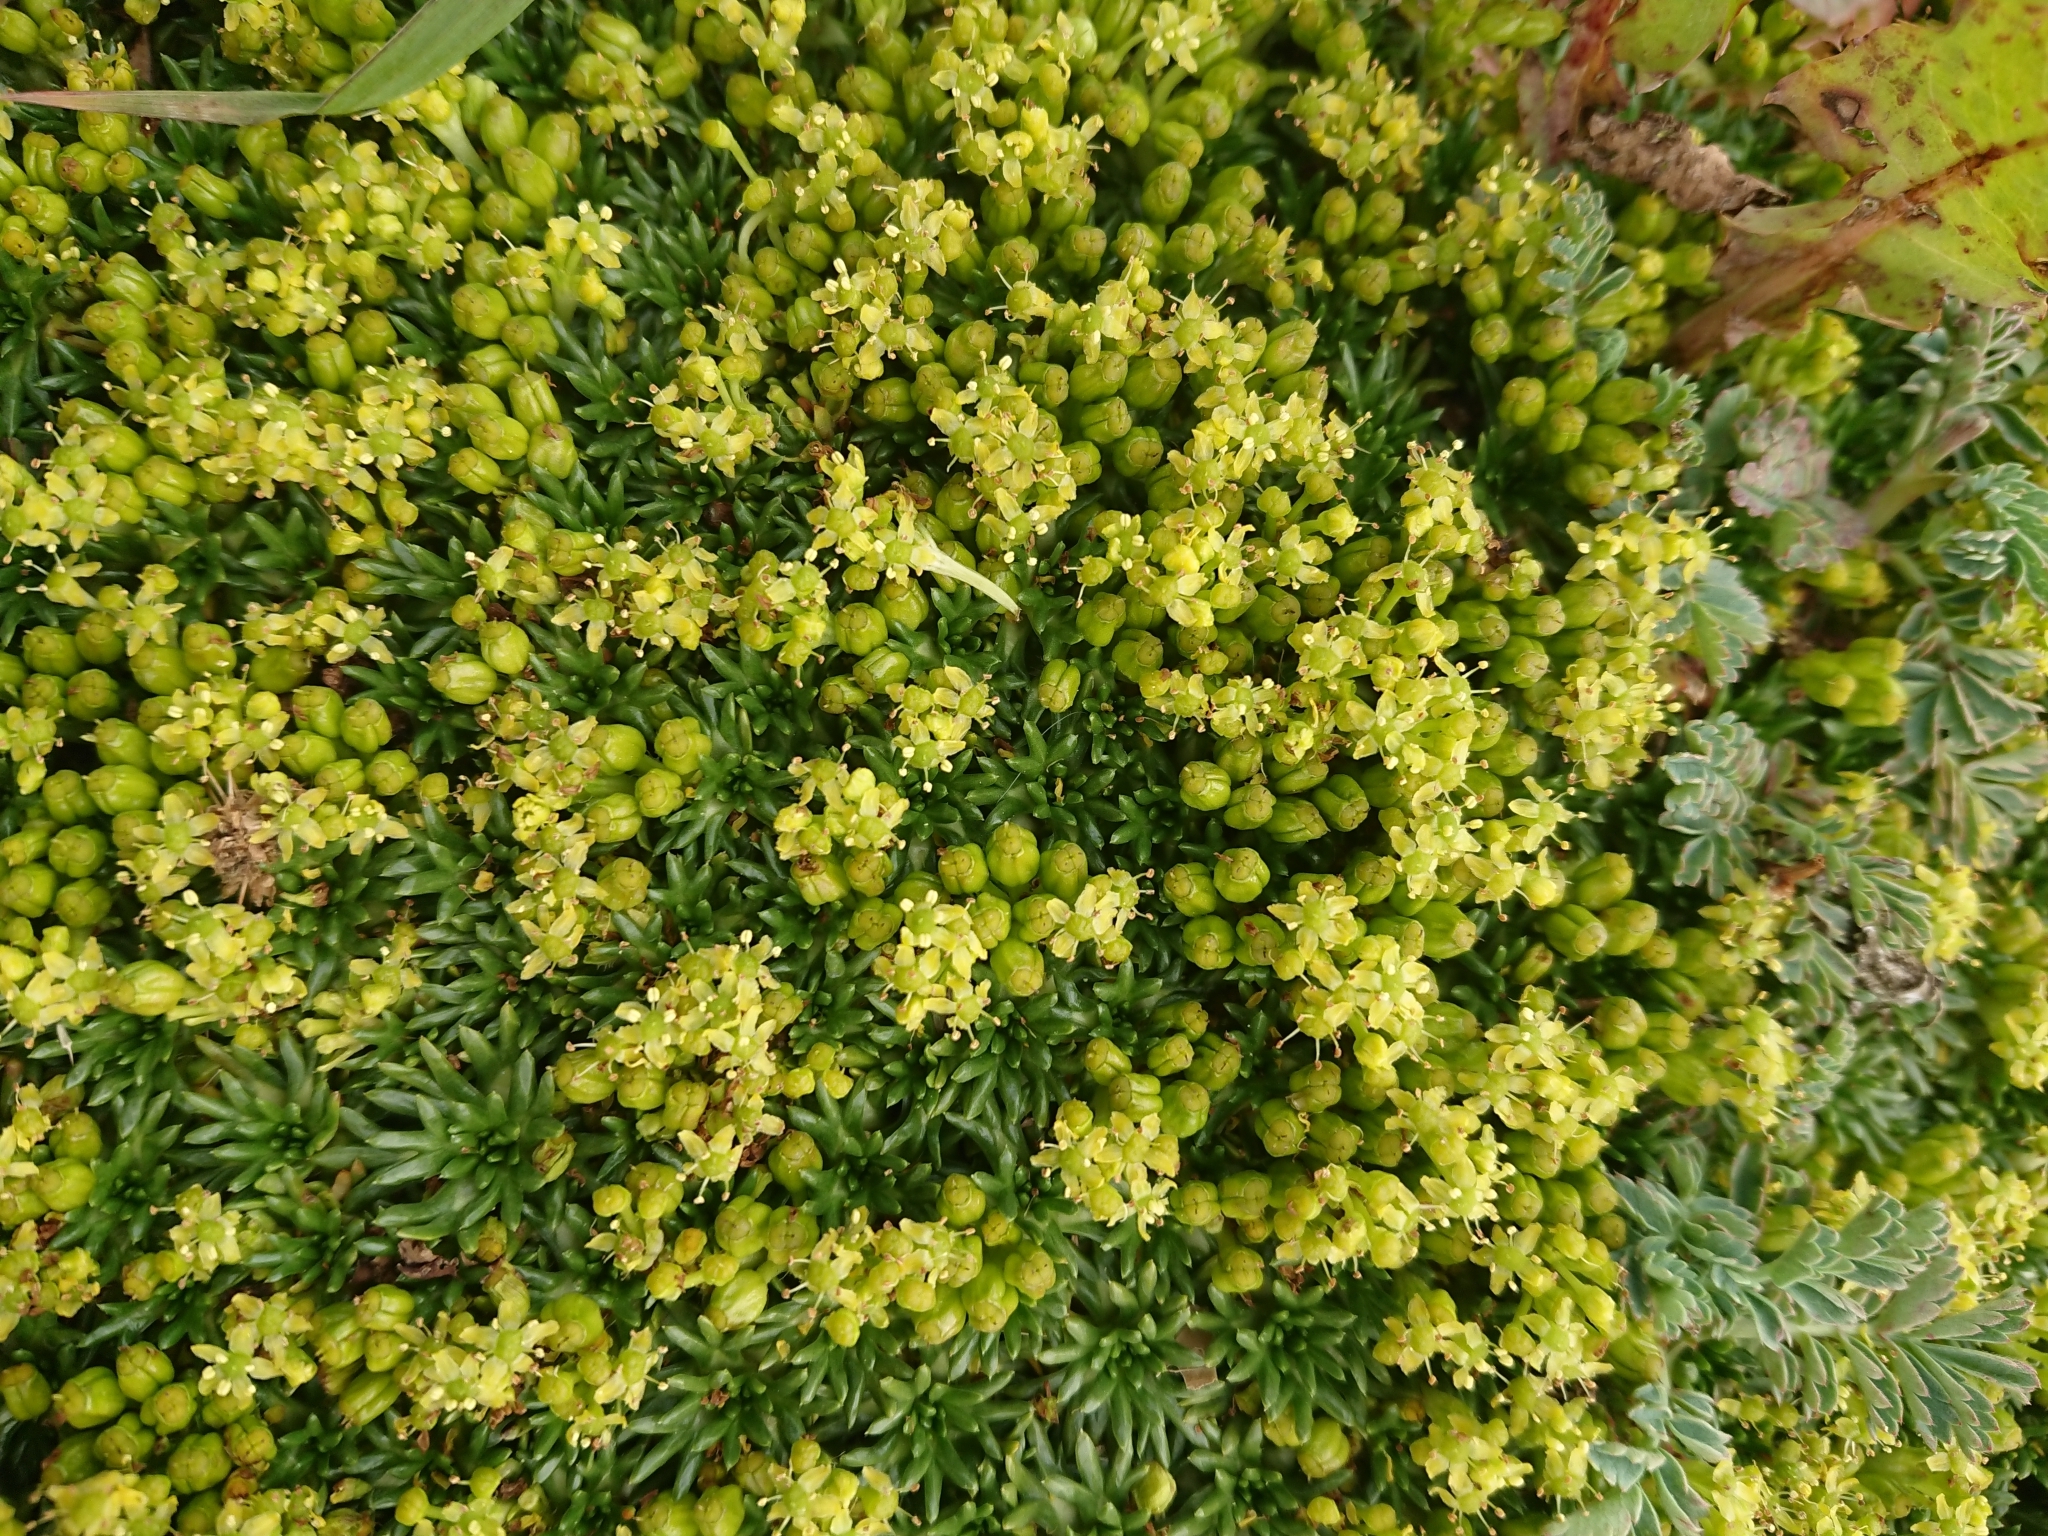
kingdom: Plantae
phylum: Tracheophyta
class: Magnoliopsida
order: Apiales
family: Apiaceae
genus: Azorella
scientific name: Azorella trifurcata
